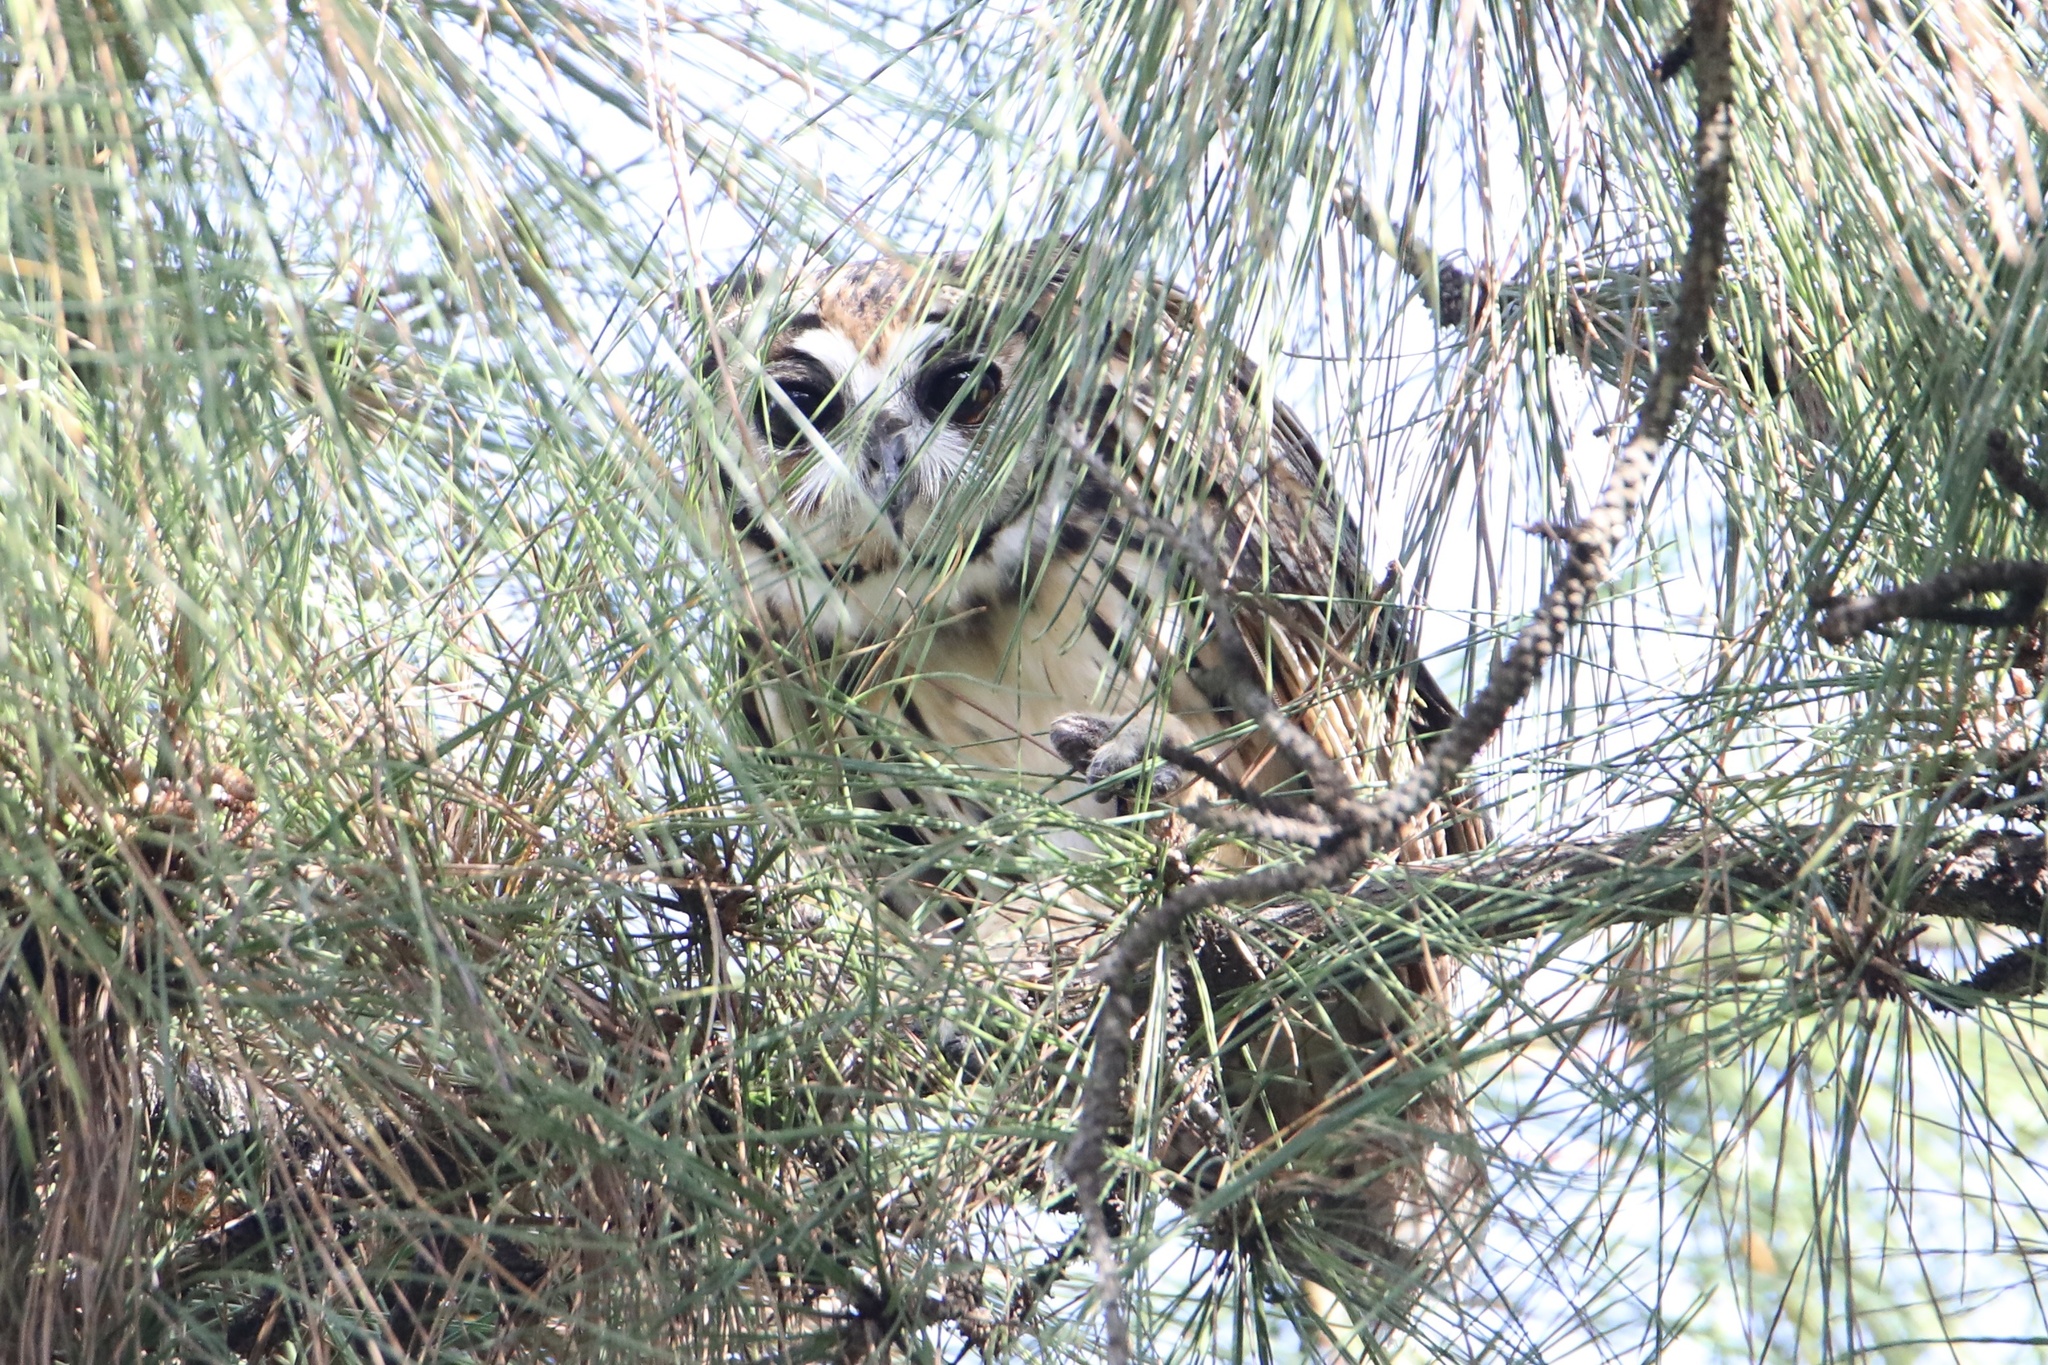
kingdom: Animalia
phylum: Chordata
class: Aves
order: Strigiformes
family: Strigidae
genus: Pseudoscops
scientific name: Pseudoscops clamator
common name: Striped owl
